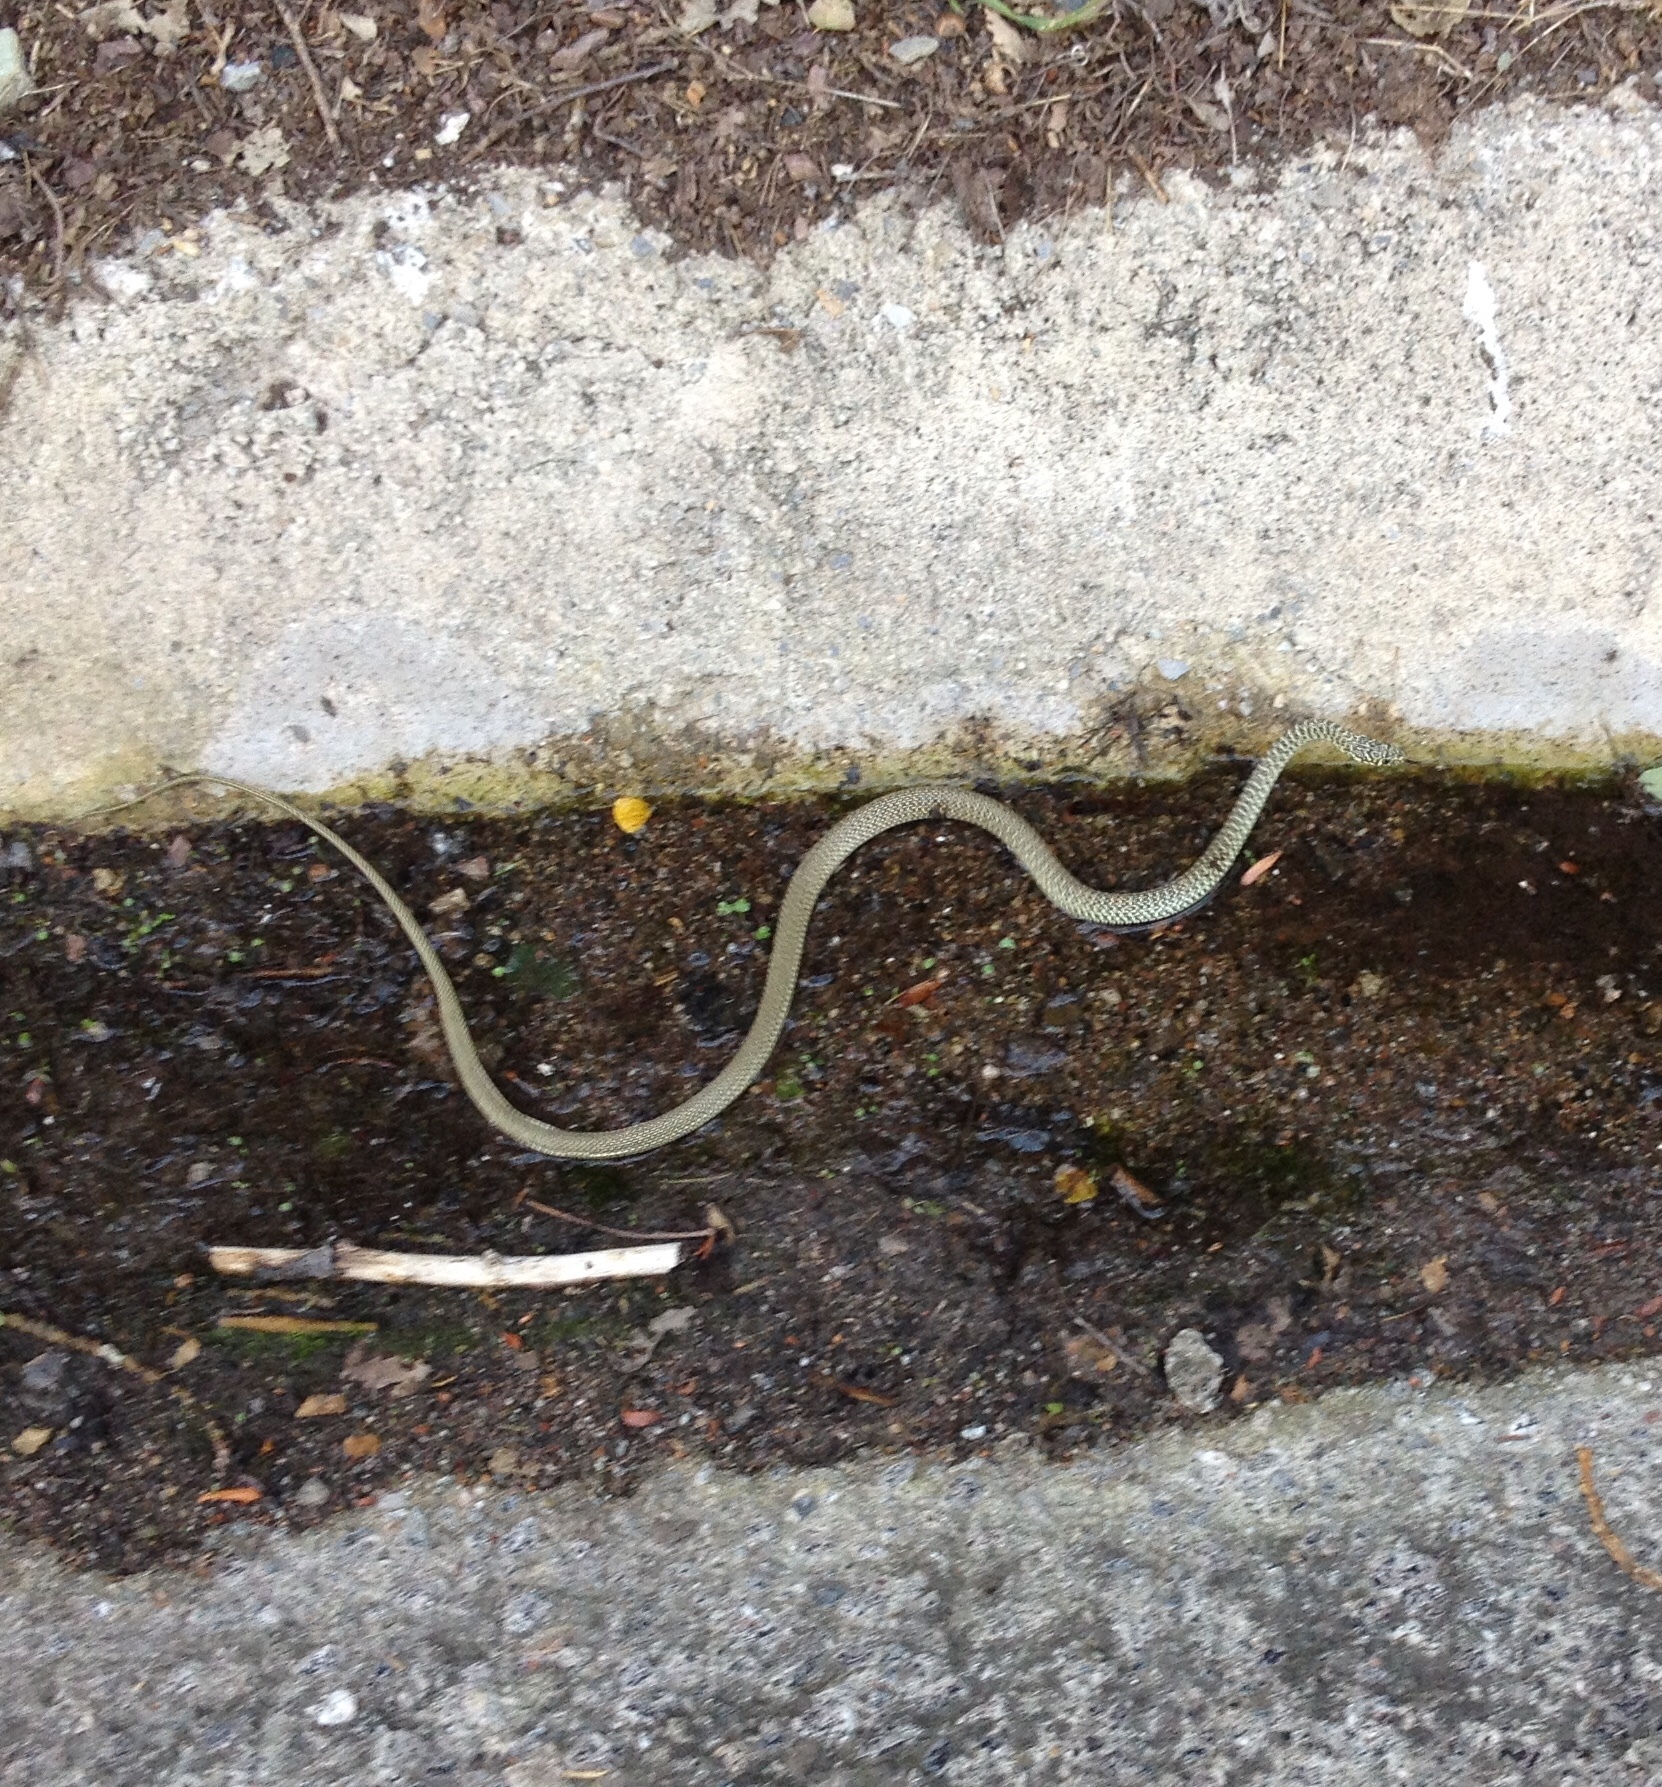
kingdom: Animalia
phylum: Chordata
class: Squamata
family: Colubridae
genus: Hierophis
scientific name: Hierophis viridiflavus
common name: Green whip snake
